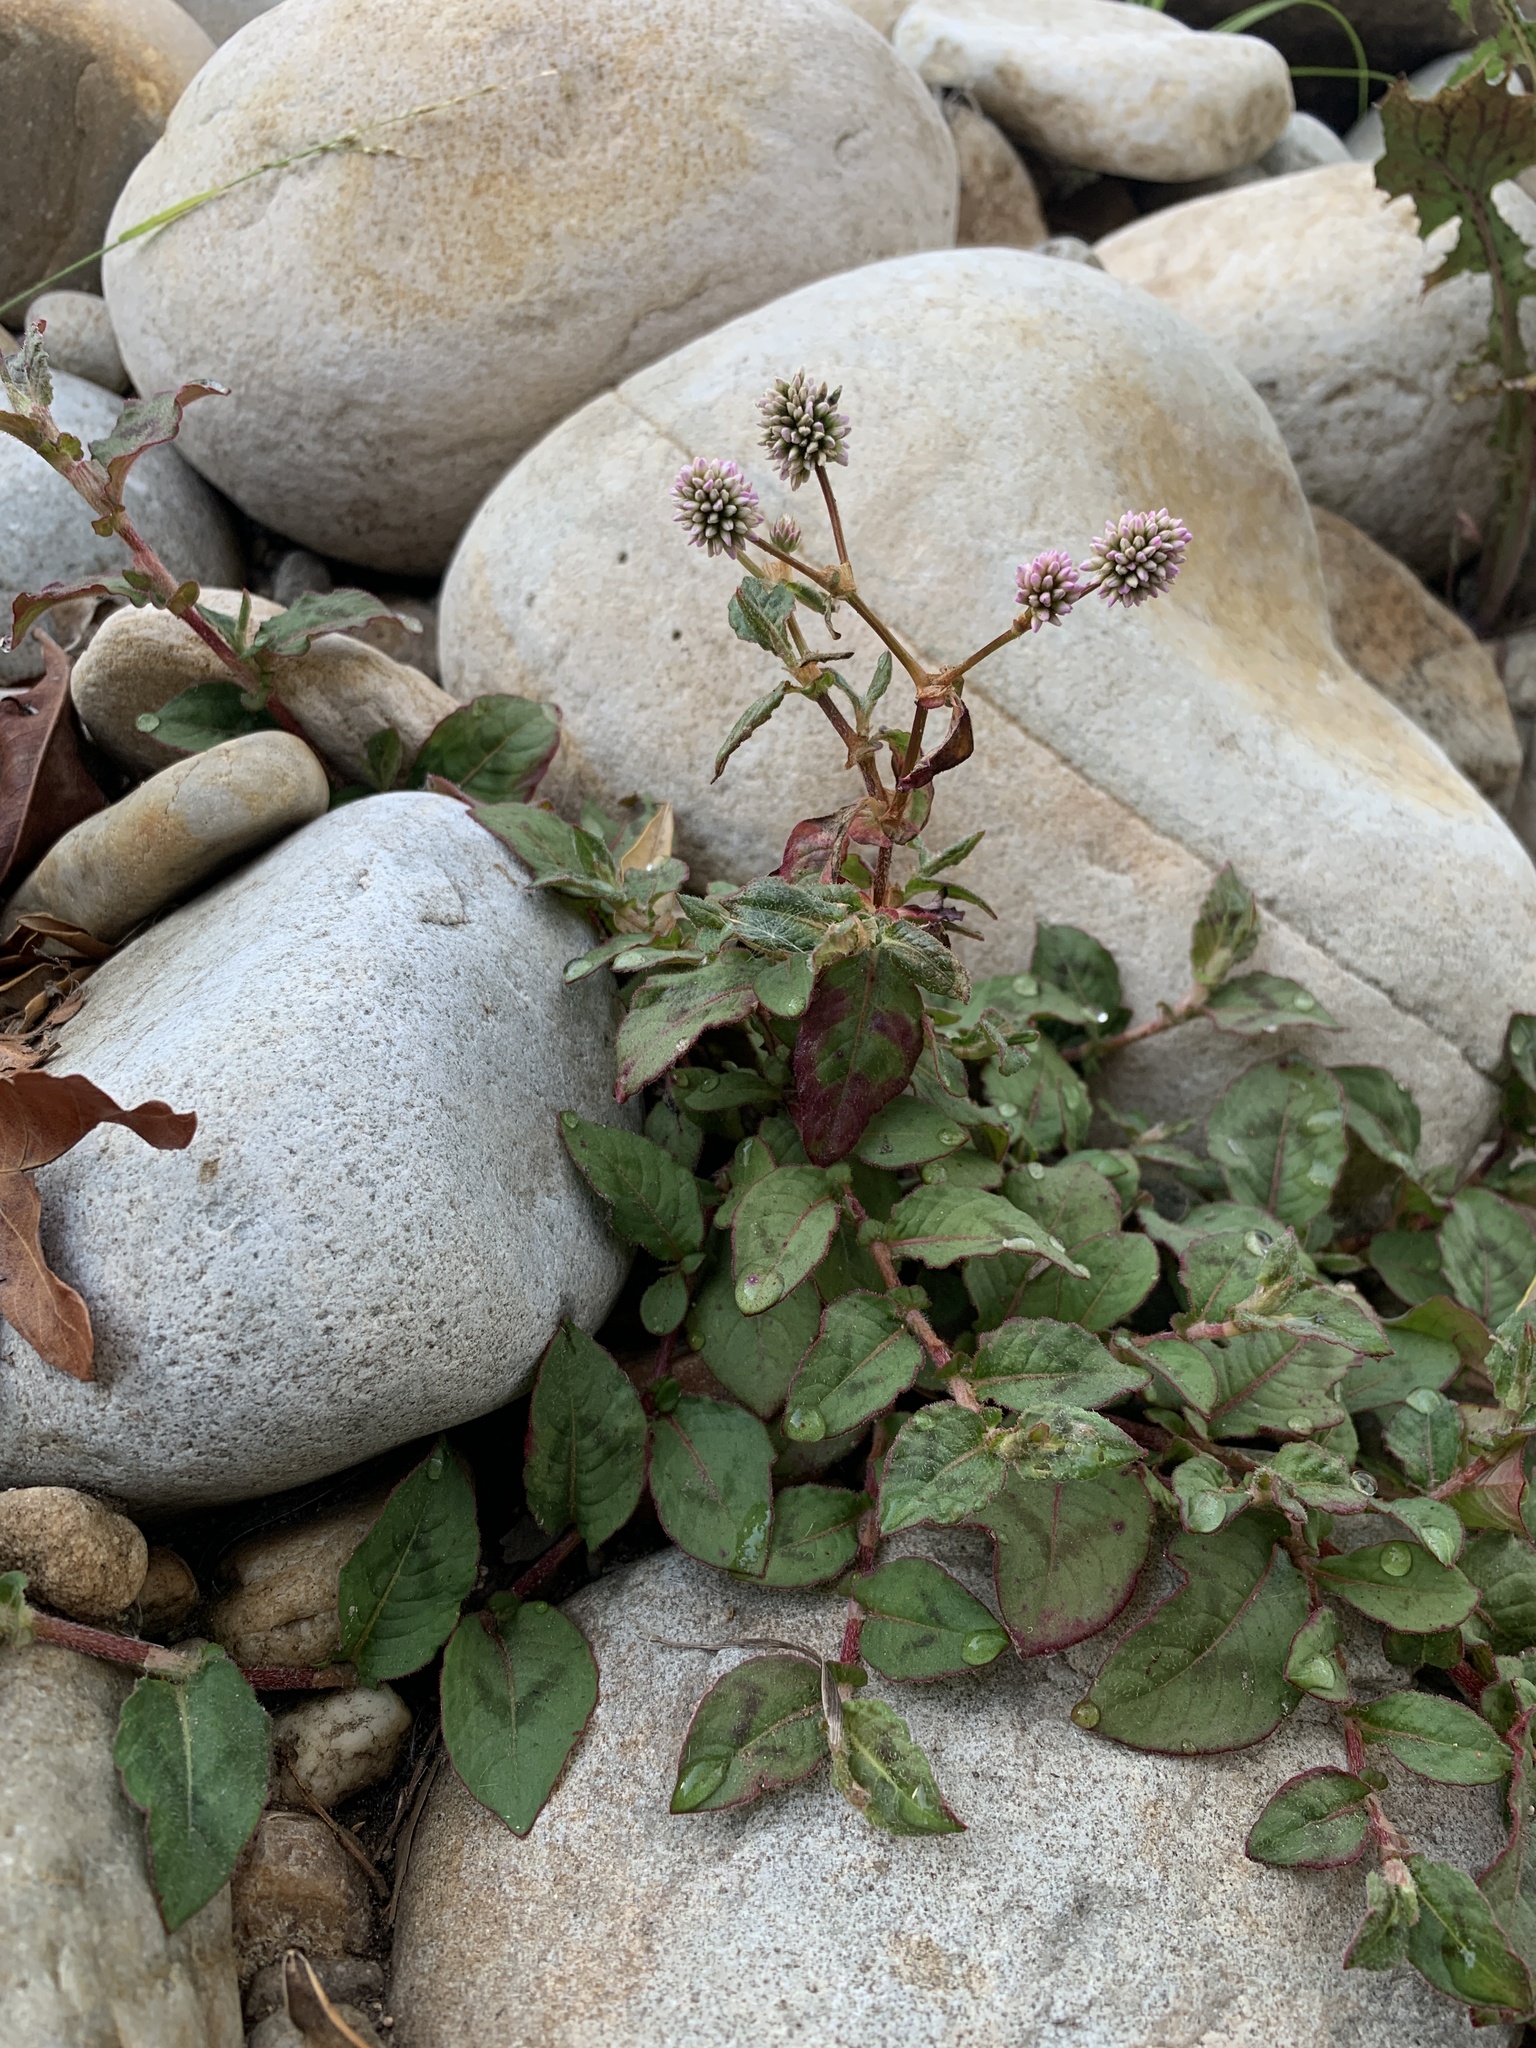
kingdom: Plantae
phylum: Tracheophyta
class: Magnoliopsida
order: Caryophyllales
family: Polygonaceae
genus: Persicaria
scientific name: Persicaria capitata
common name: Pinkhead smartweed
